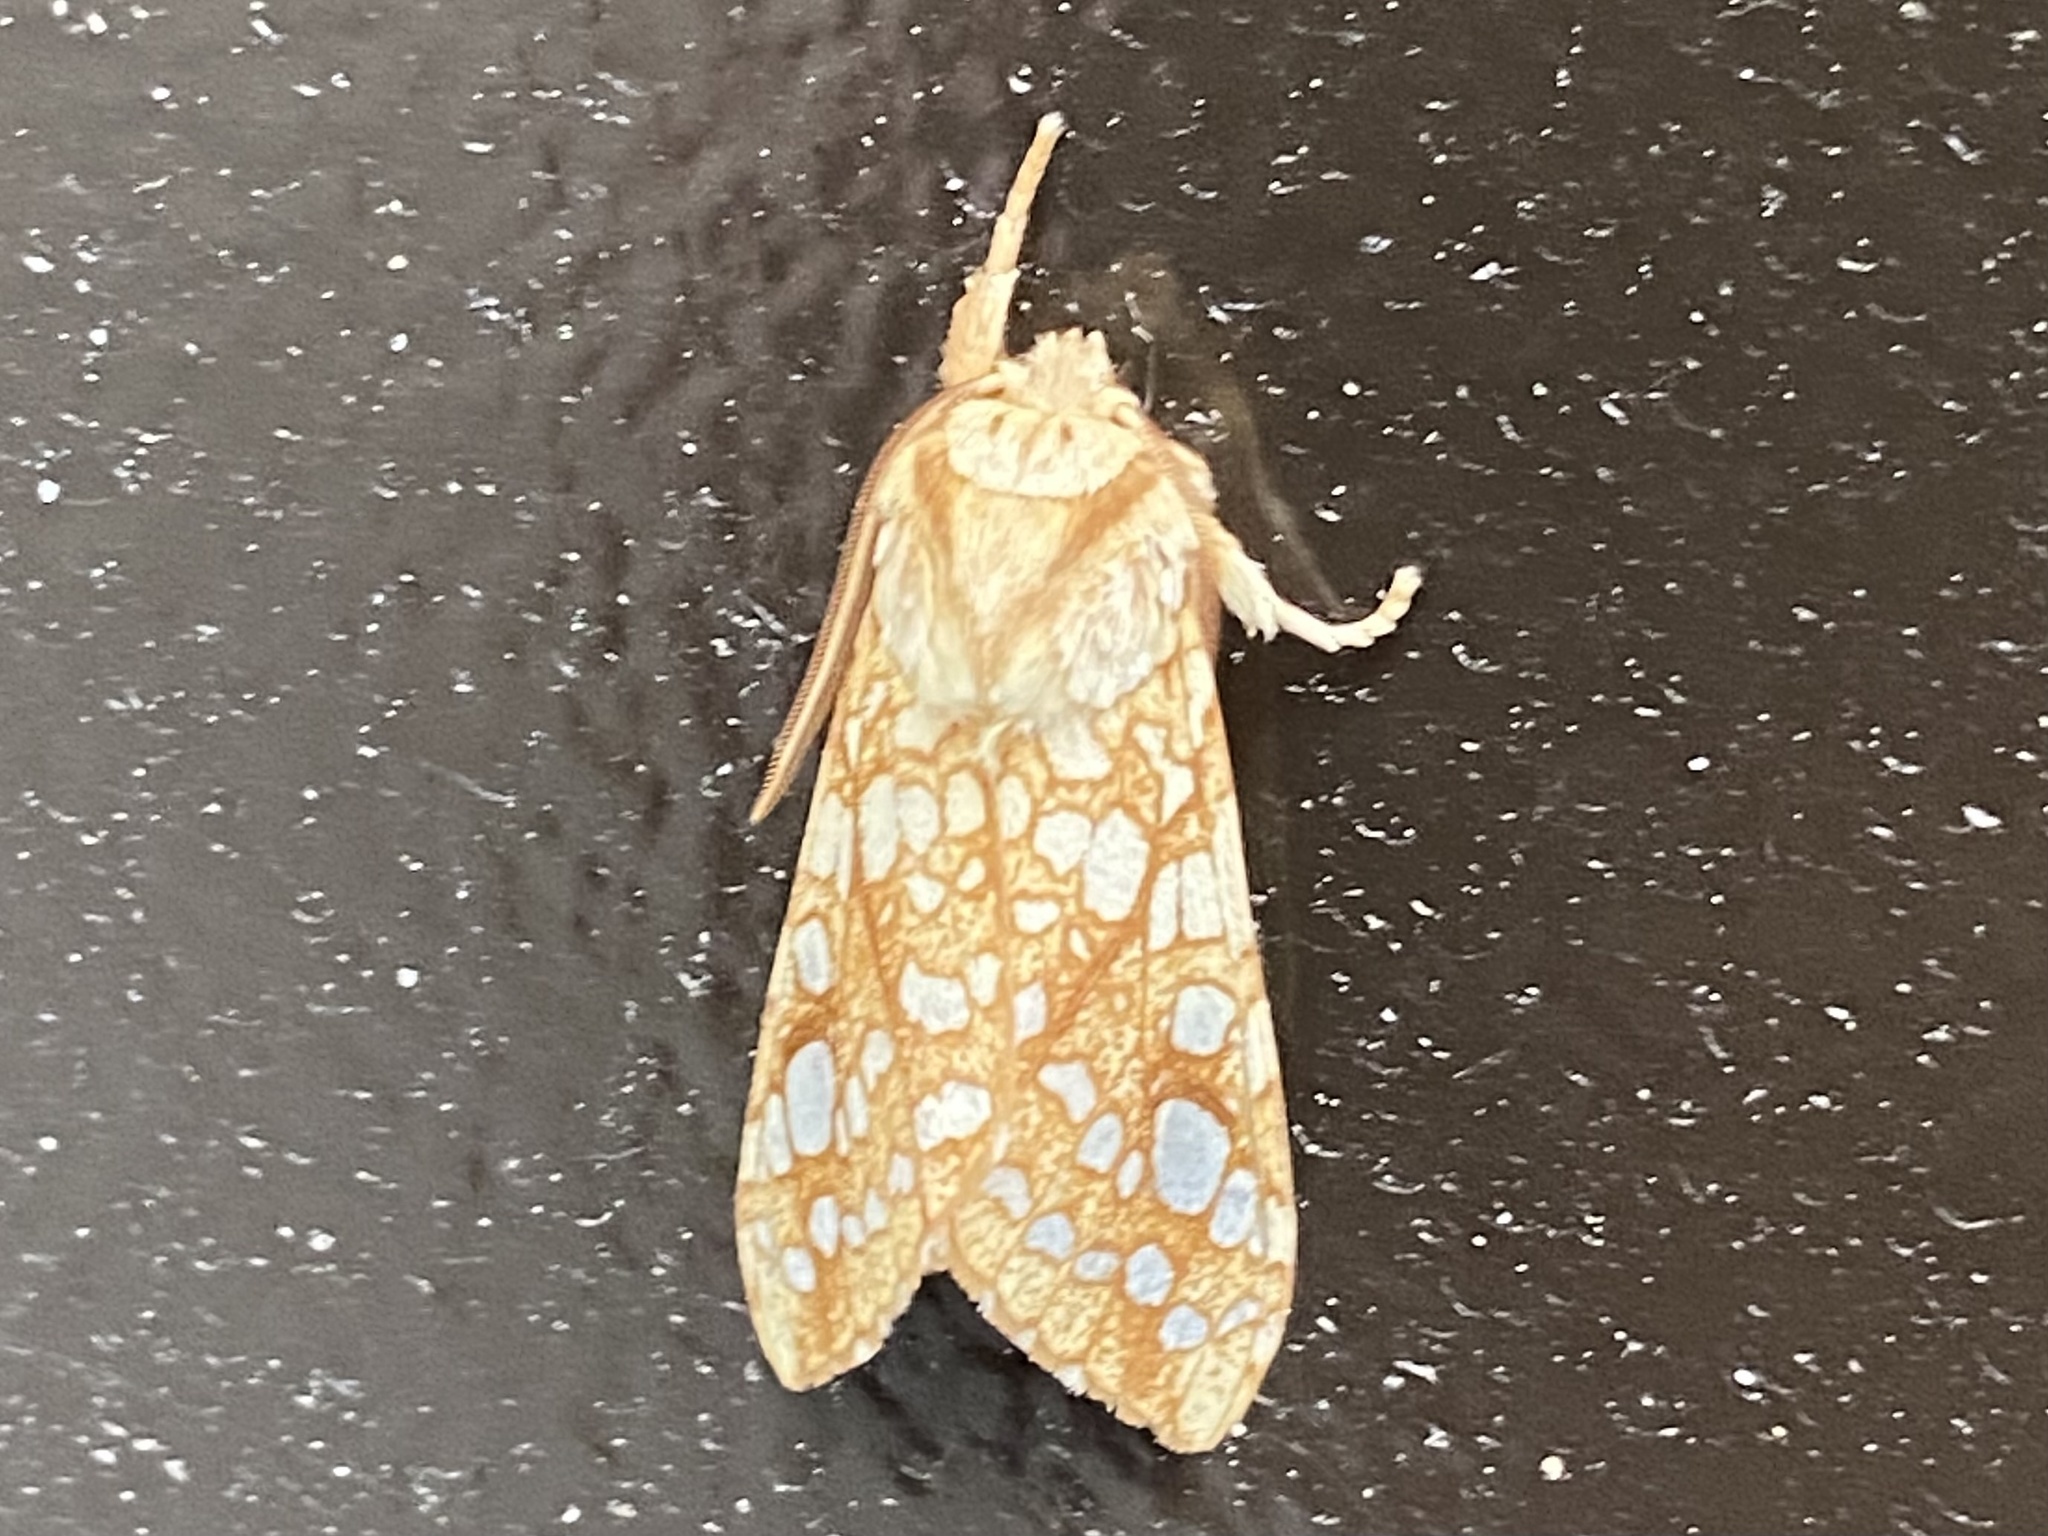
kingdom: Animalia
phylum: Arthropoda
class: Insecta
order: Lepidoptera
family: Erebidae
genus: Lophocampa
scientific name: Lophocampa caryae
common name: Hickory tussock moth
